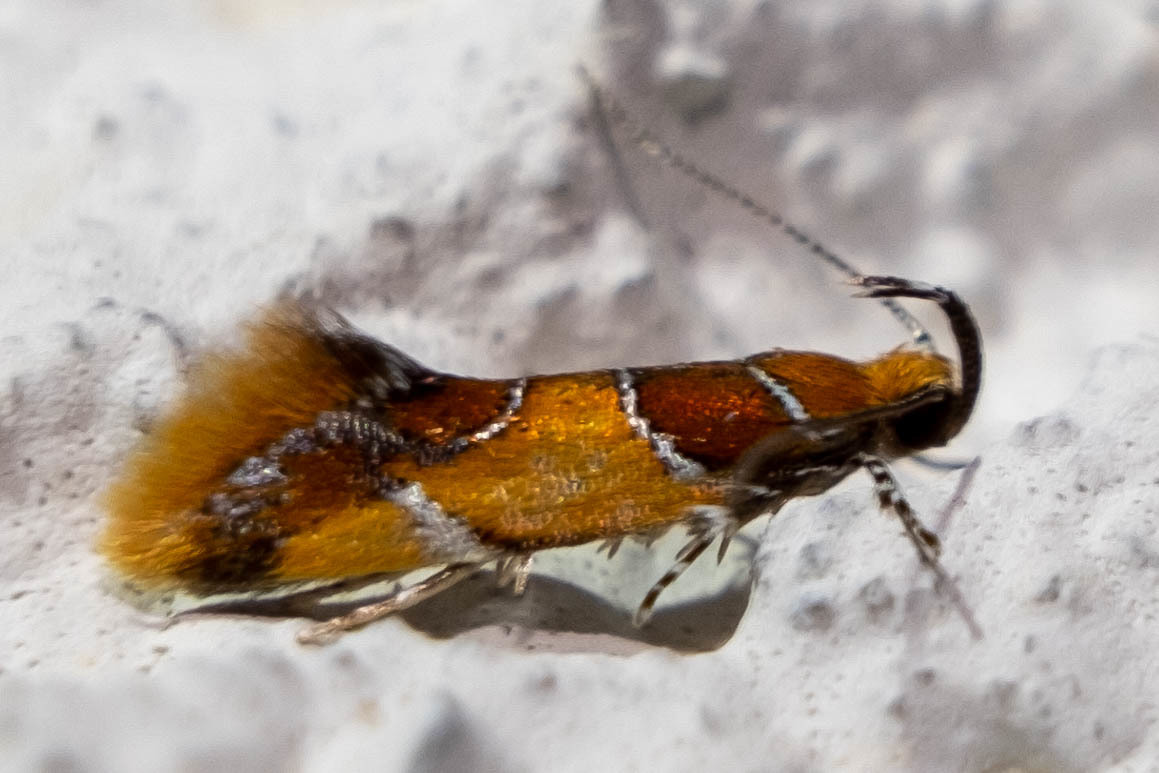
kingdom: Animalia
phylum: Arthropoda
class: Insecta
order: Lepidoptera
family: Oecophoridae
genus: Callima
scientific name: Callima argenticinctella
